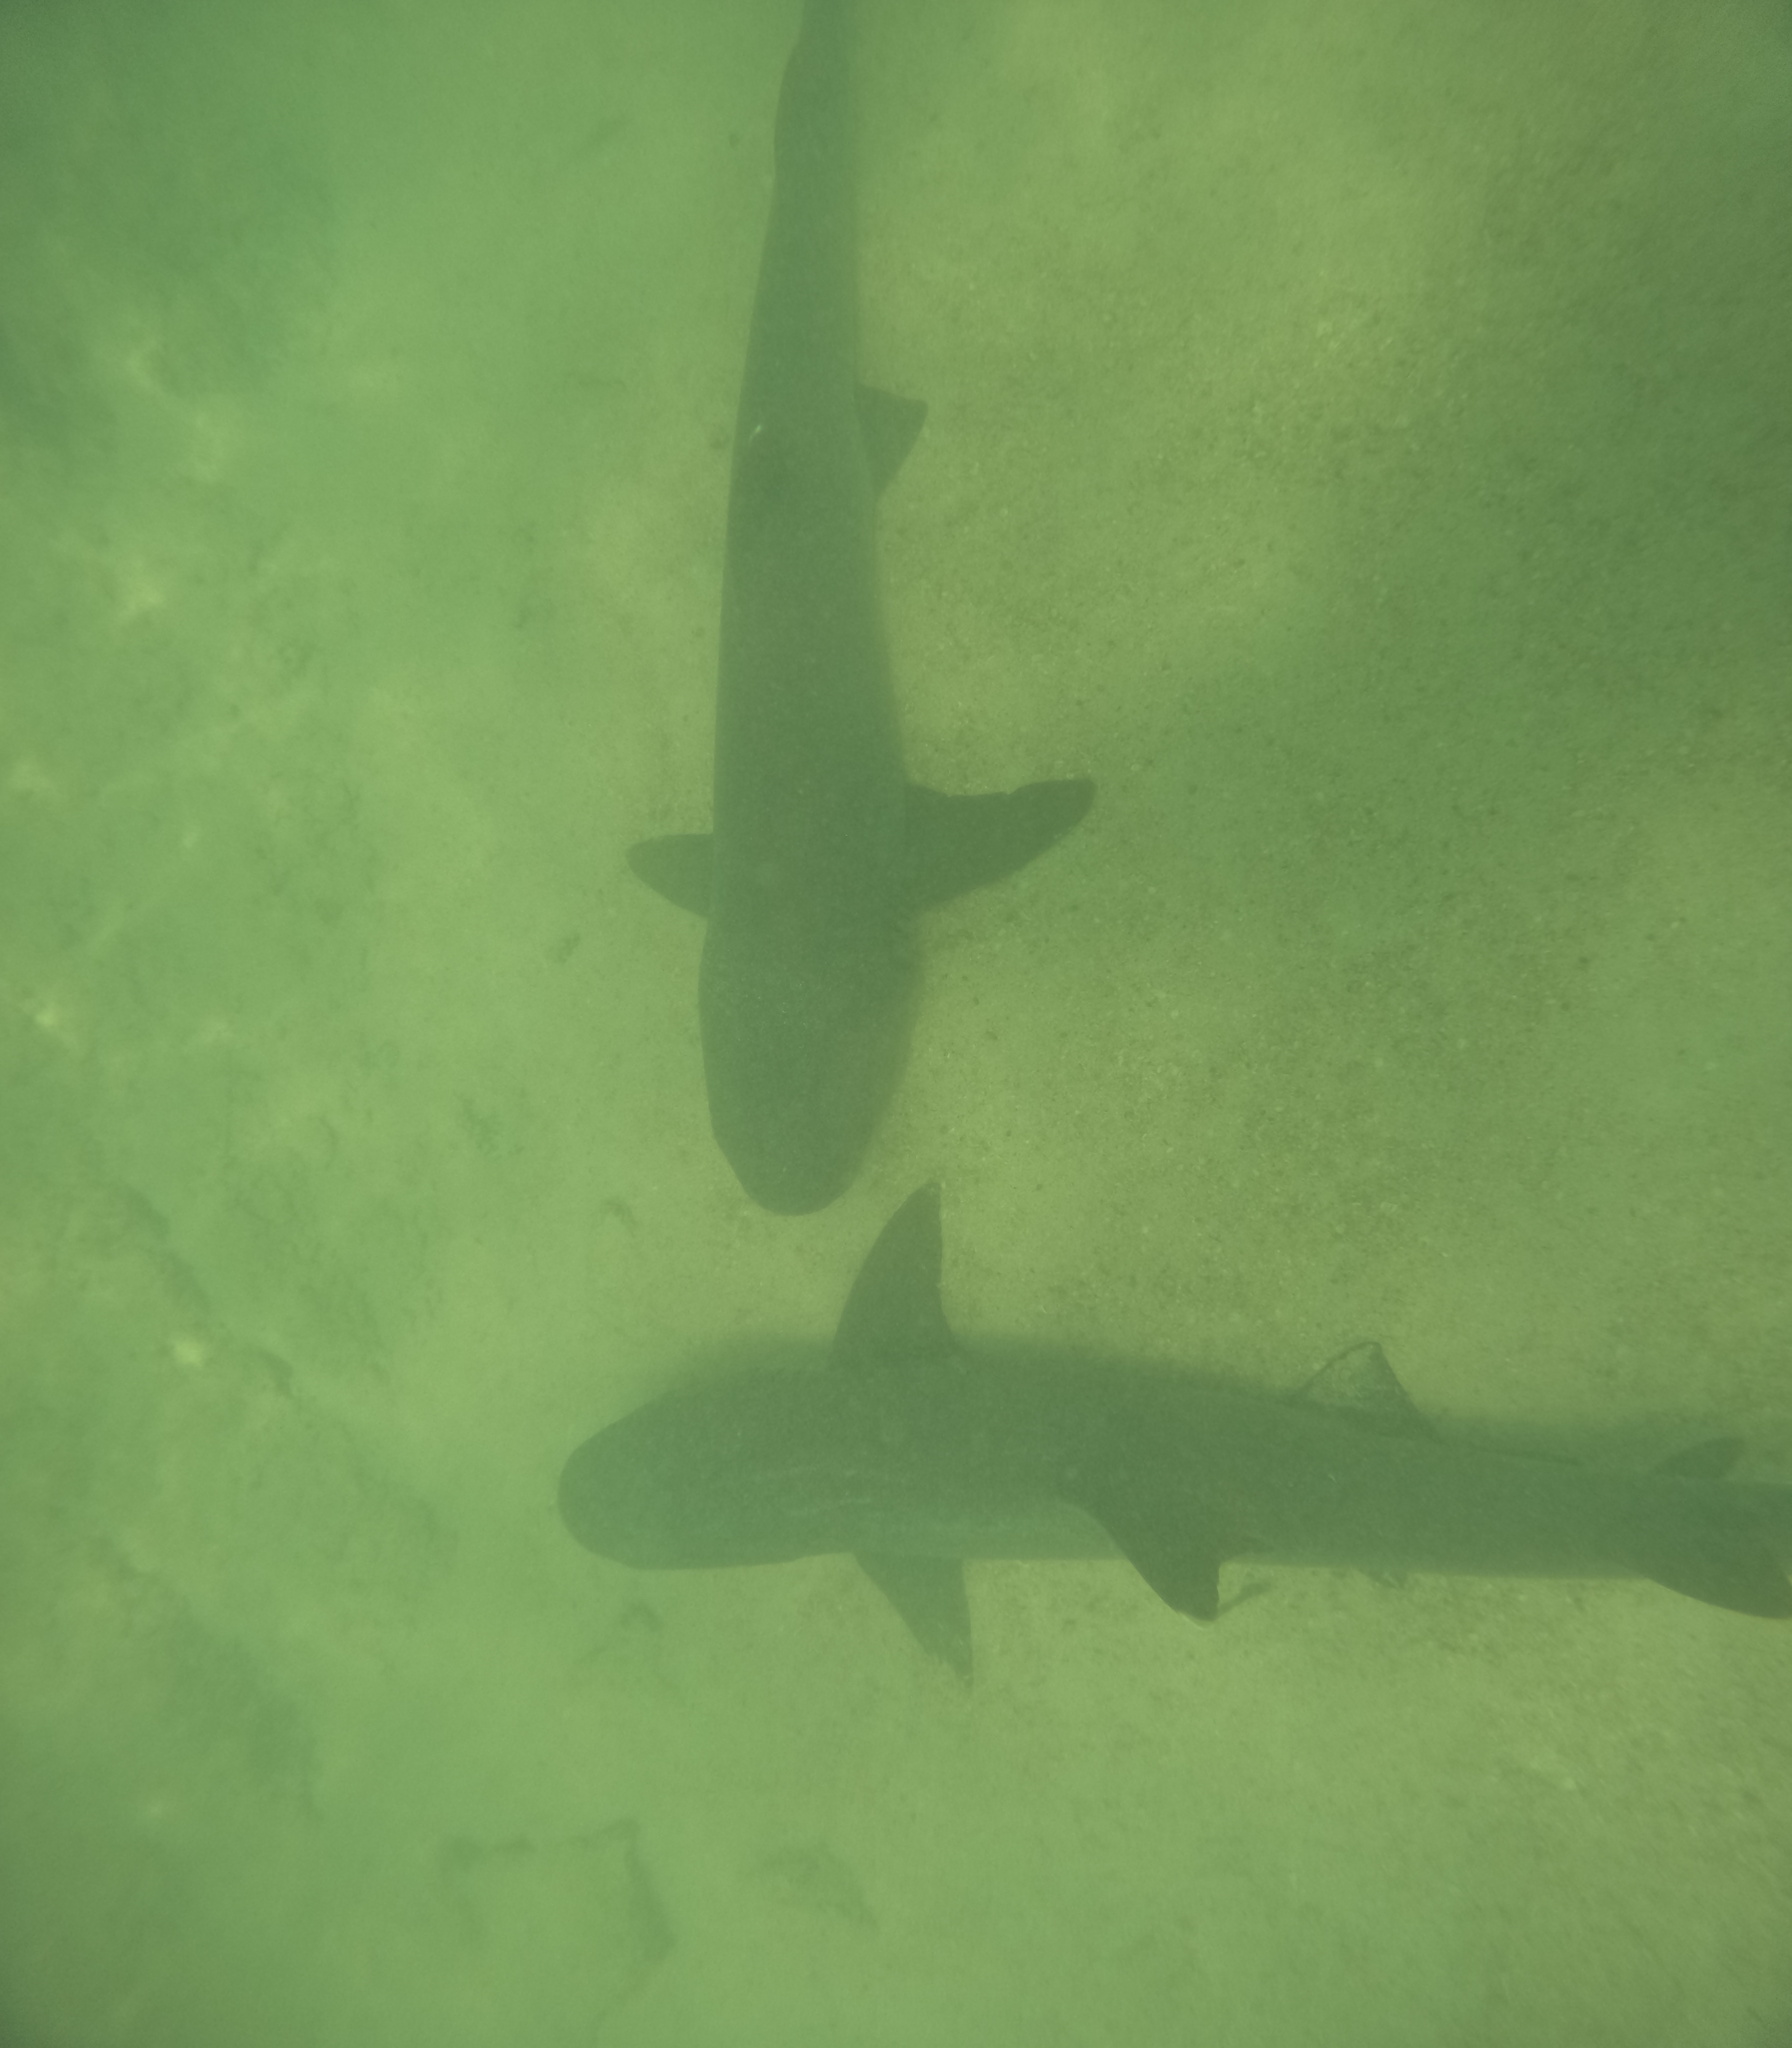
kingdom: Animalia
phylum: Chordata
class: Elasmobranchii
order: Carcharhiniformes
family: Carcharhinidae
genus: Triaenodon
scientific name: Triaenodon obesus
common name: Whitetip reef shark
